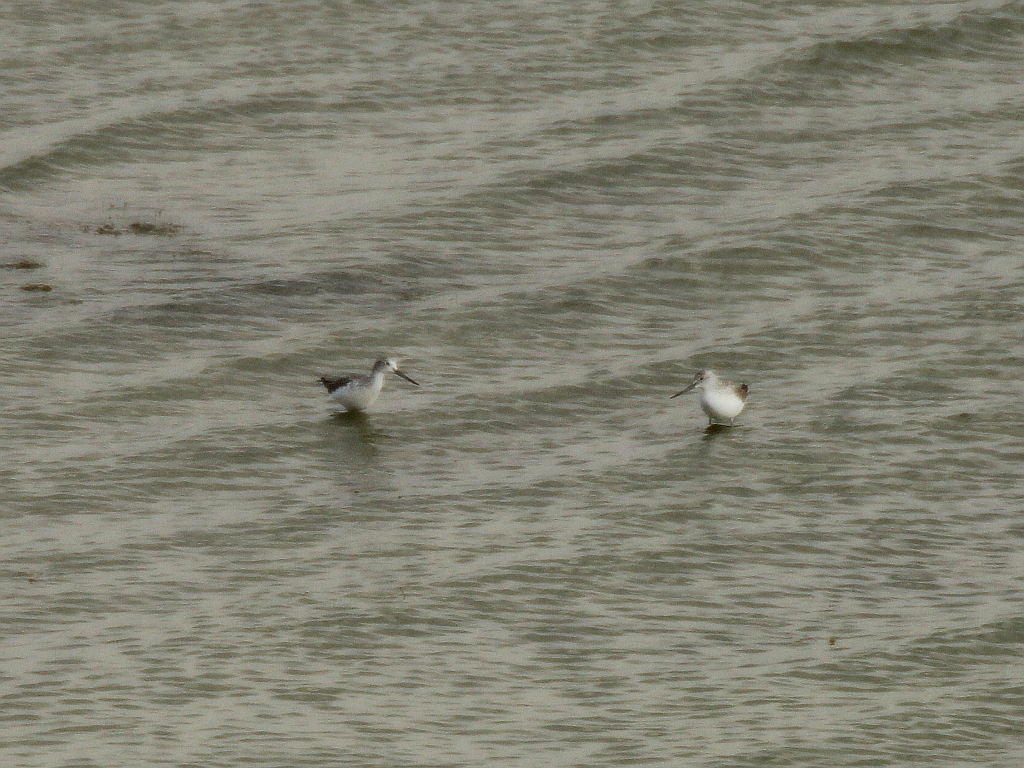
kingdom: Animalia
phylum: Chordata
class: Aves
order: Charadriiformes
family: Scolopacidae
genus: Tringa
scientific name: Tringa nebularia
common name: Common greenshank
